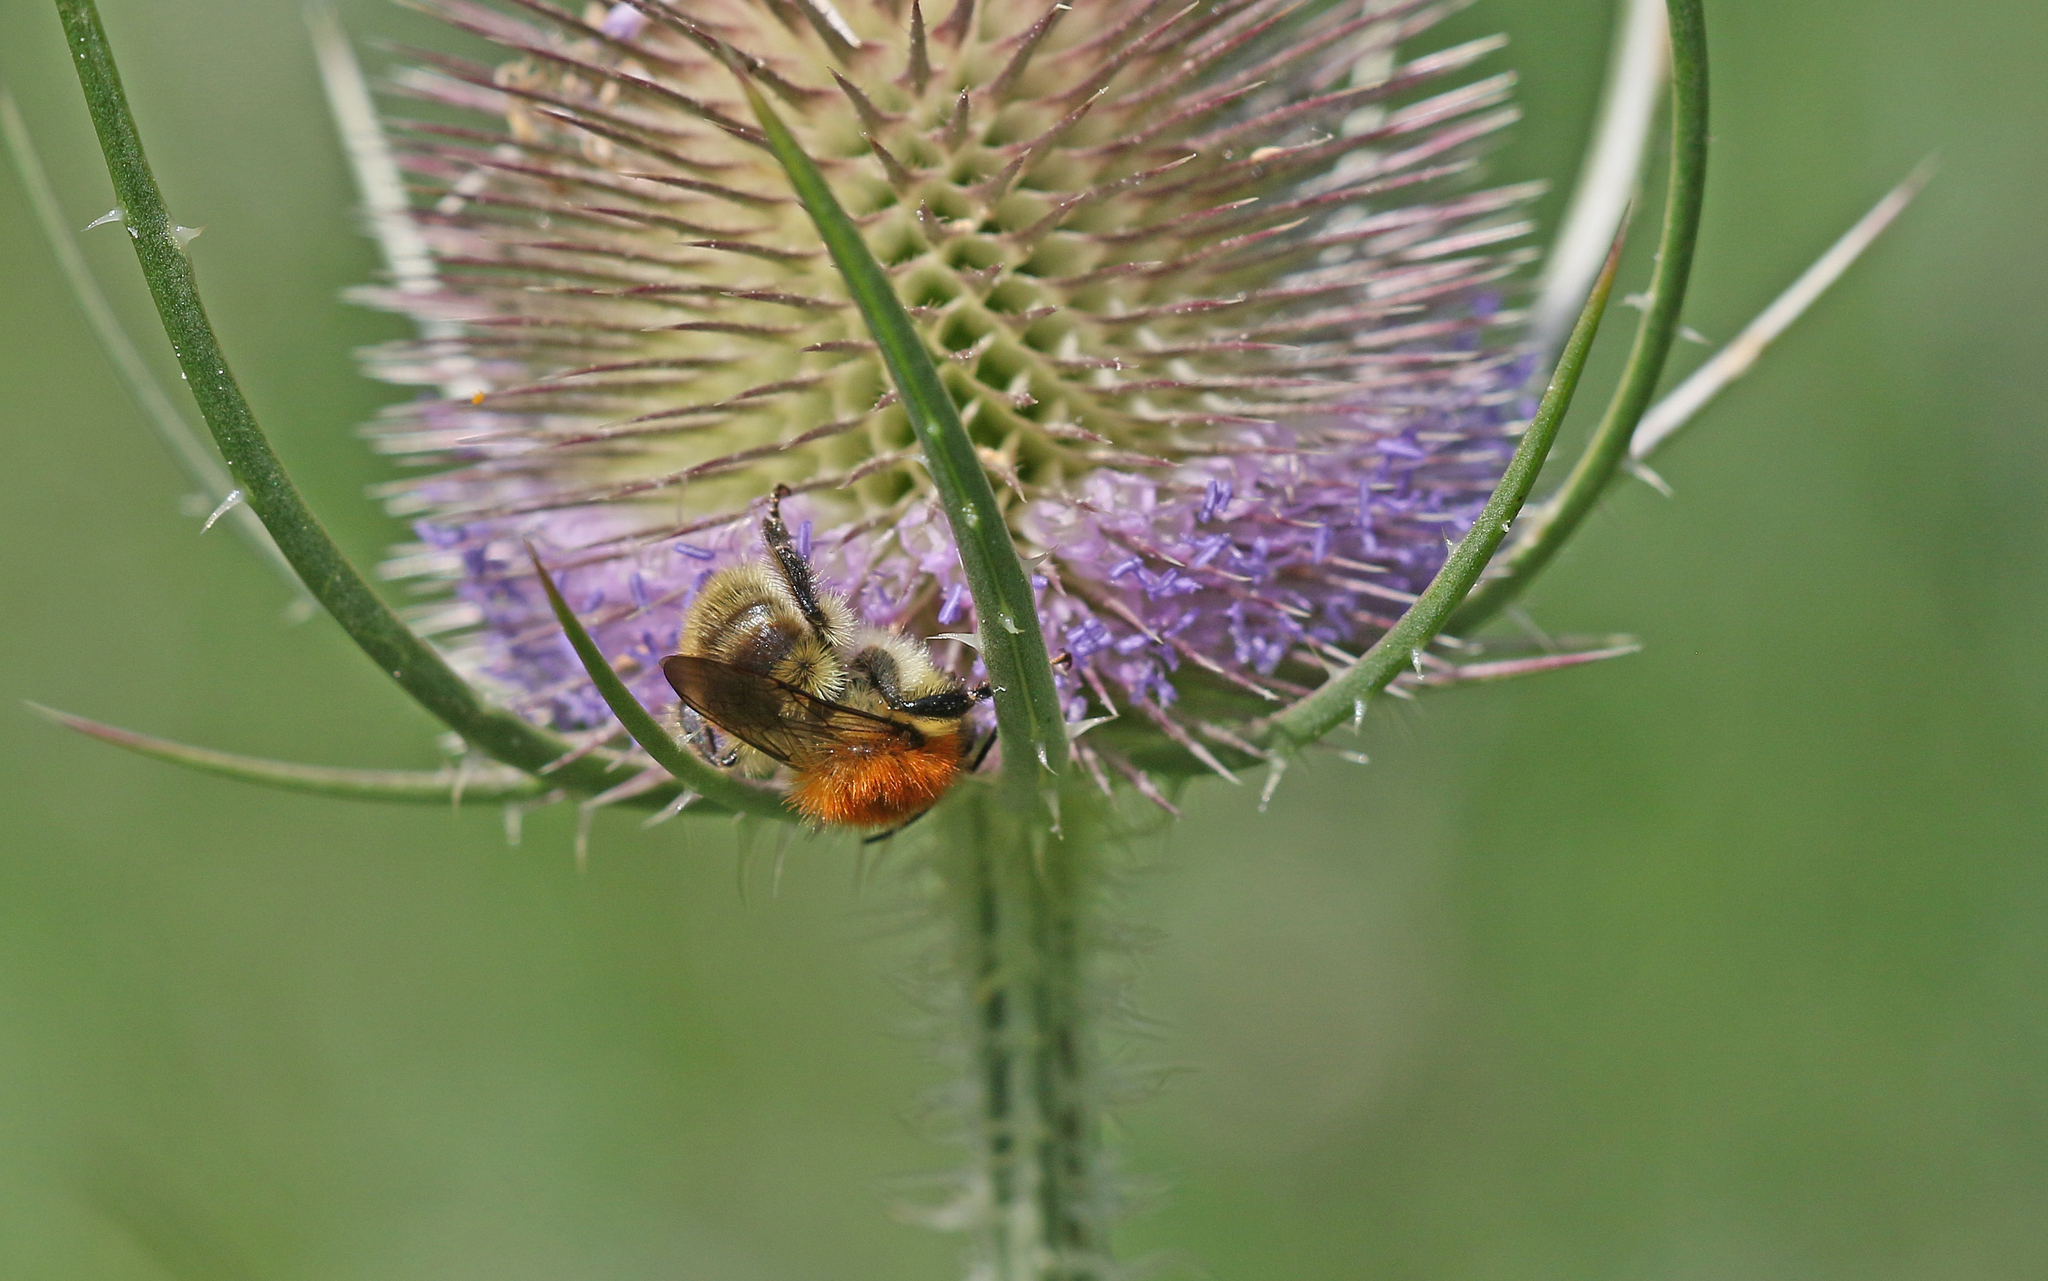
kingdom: Animalia
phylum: Arthropoda
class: Insecta
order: Hymenoptera
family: Apidae
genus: Bombus
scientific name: Bombus pascuorum
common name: Common carder bee
